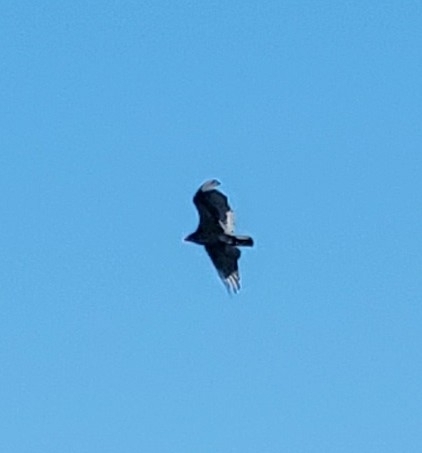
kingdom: Animalia
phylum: Chordata
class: Aves
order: Accipitriformes
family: Cathartidae
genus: Cathartes
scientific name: Cathartes aura
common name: Turkey vulture
